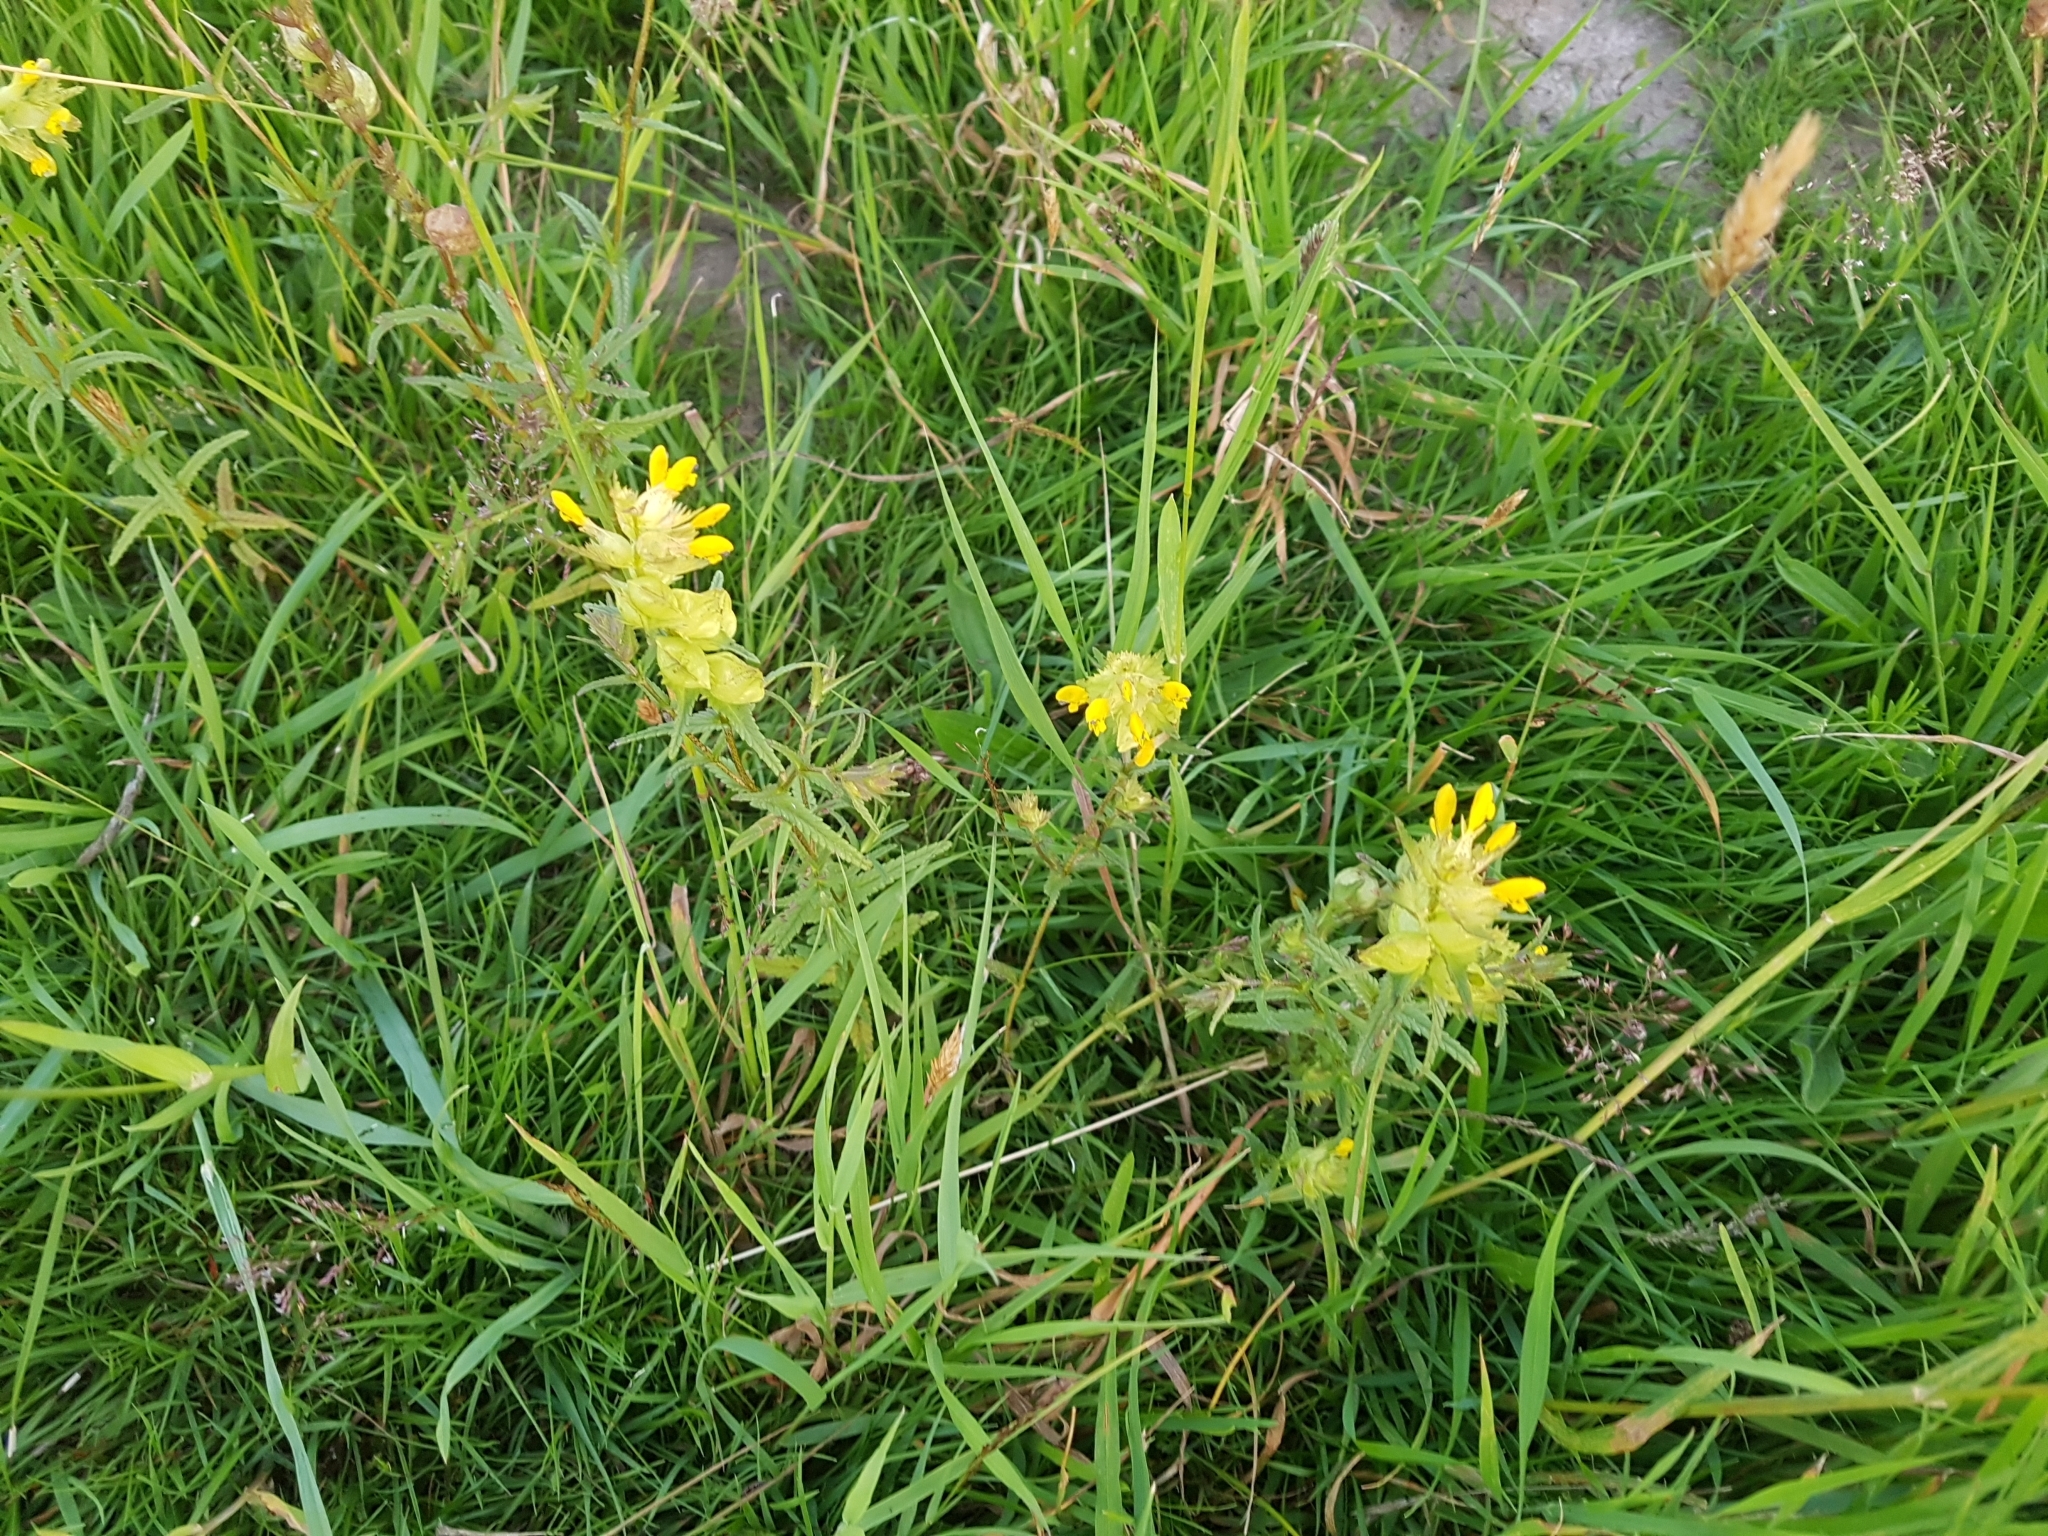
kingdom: Plantae
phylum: Tracheophyta
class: Magnoliopsida
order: Lamiales
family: Orobanchaceae
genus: Rhinanthus
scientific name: Rhinanthus minor
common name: Yellow-rattle
